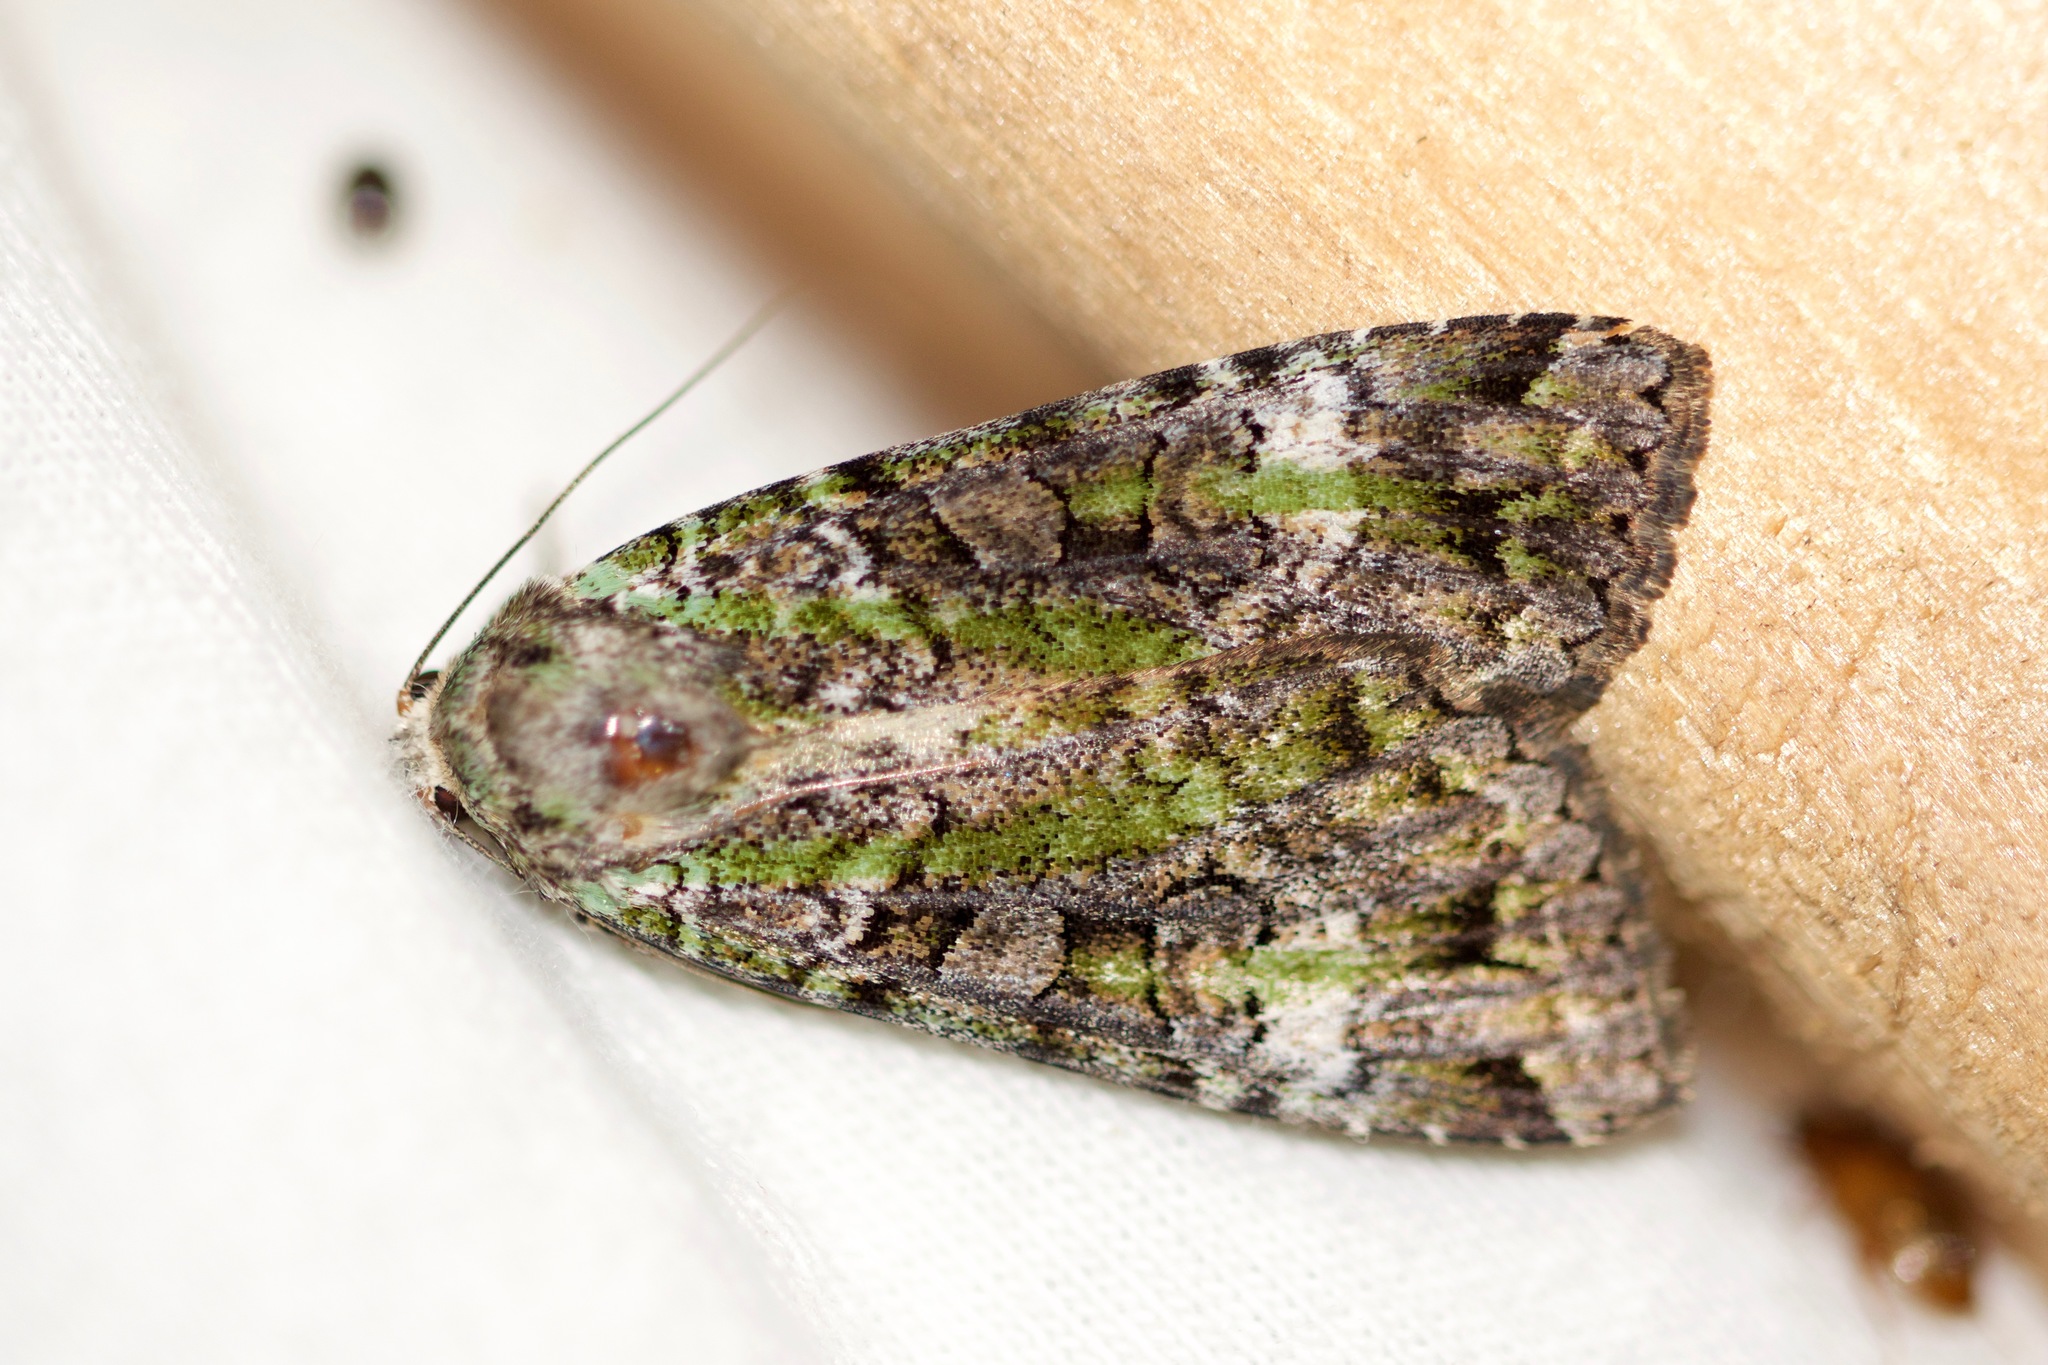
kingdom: Animalia
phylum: Arthropoda
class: Insecta
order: Lepidoptera
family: Noctuidae
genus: Anaplectoides
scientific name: Anaplectoides prasina
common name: Green arches
